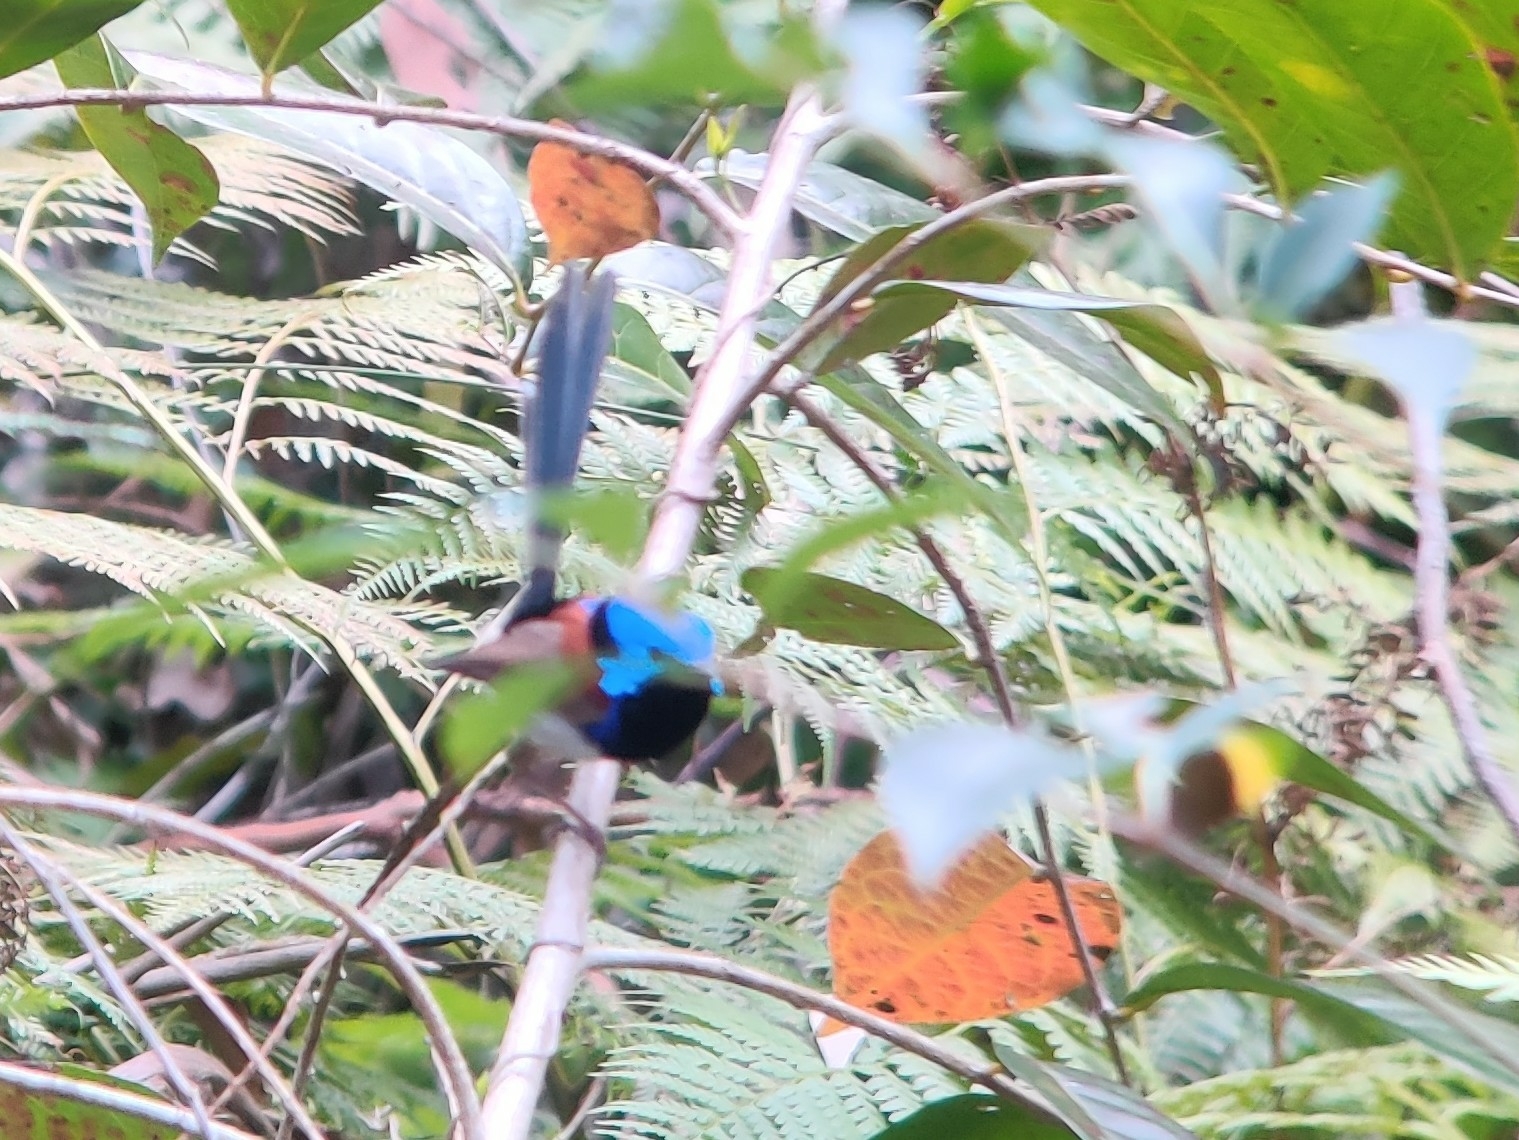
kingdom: Animalia
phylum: Chordata
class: Aves
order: Passeriformes
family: Maluridae
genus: Malurus
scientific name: Malurus lamberti
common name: Variegated fairywren
